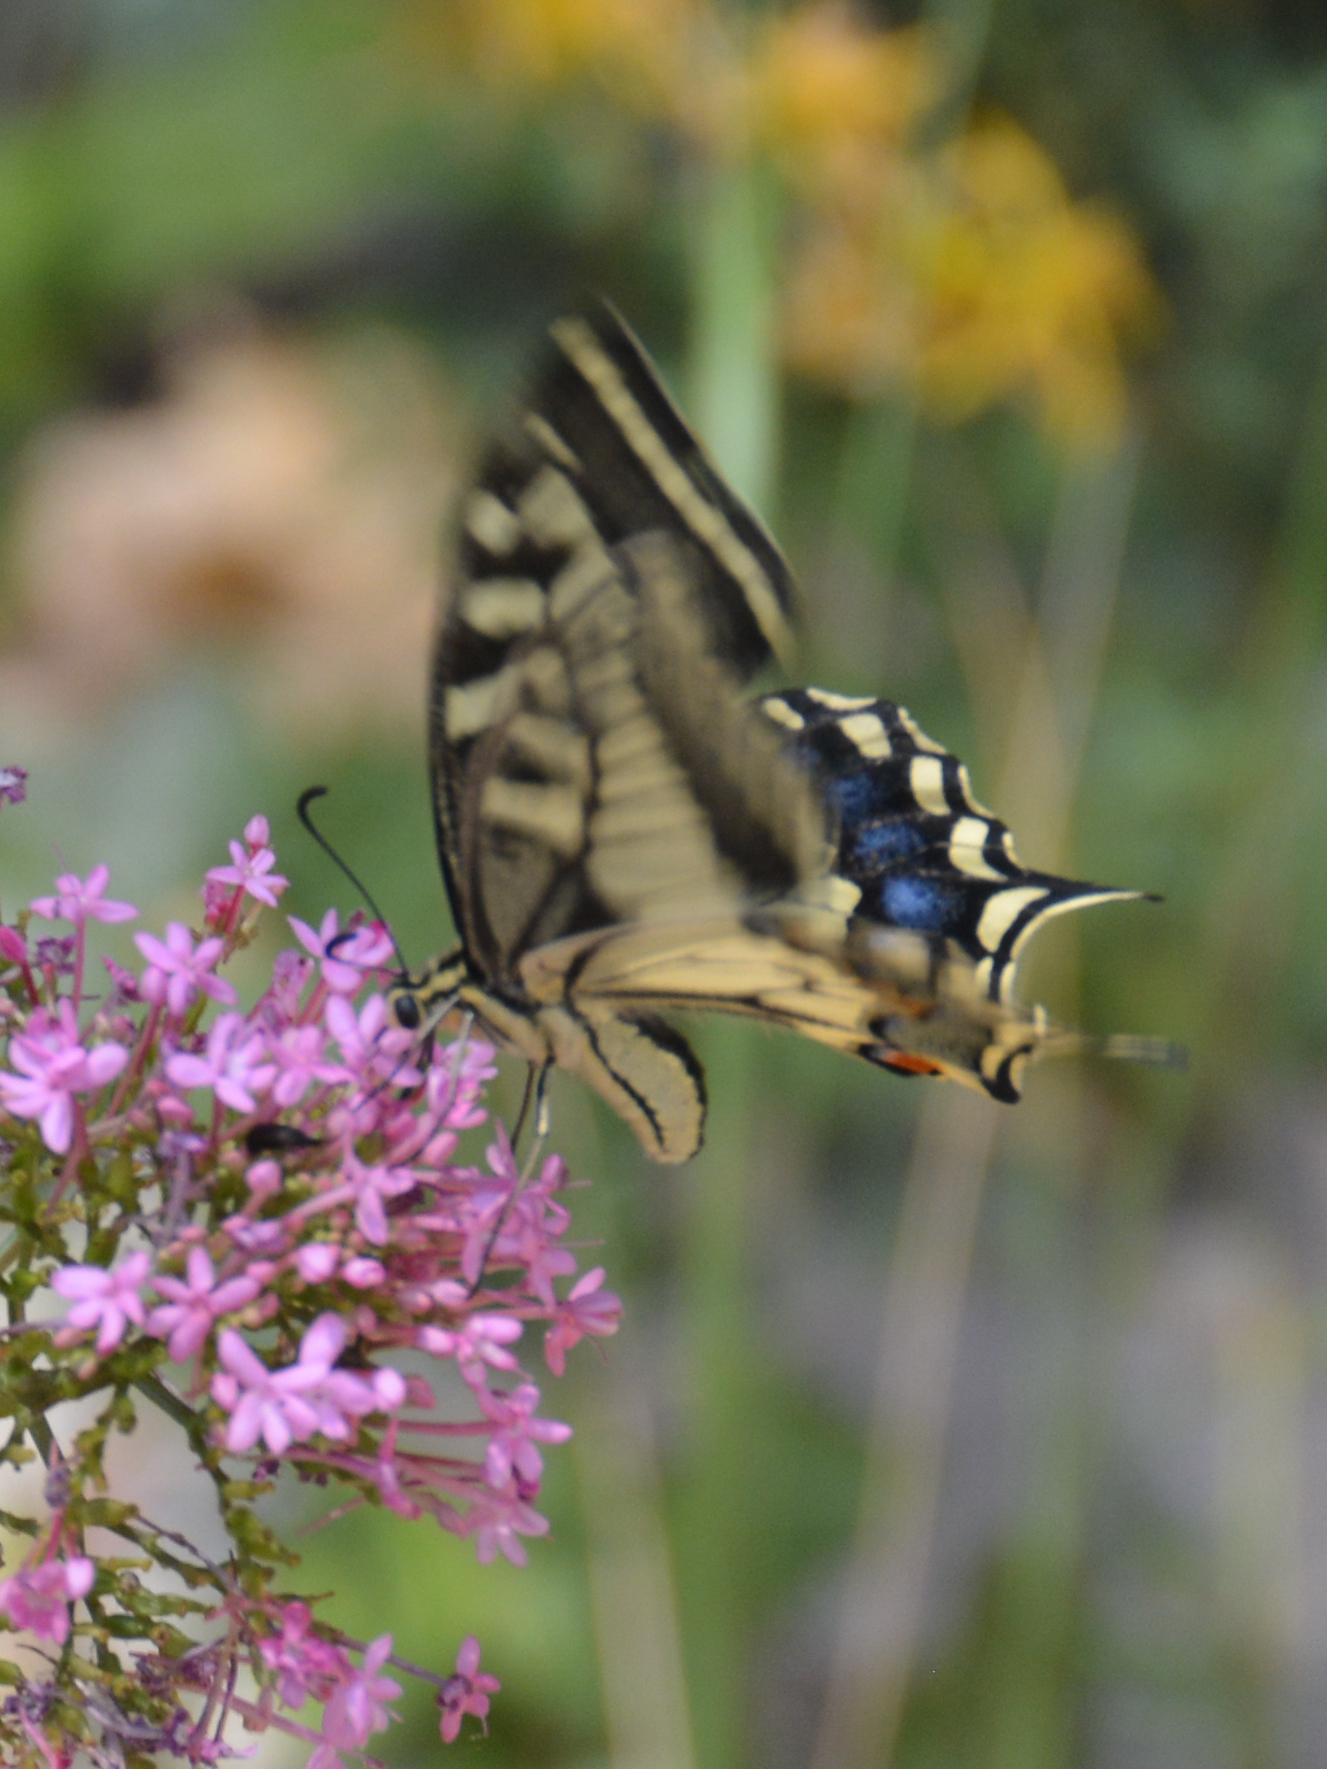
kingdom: Animalia
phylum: Arthropoda
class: Insecta
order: Lepidoptera
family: Papilionidae
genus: Papilio
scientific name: Papilio machaon
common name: Swallowtail
